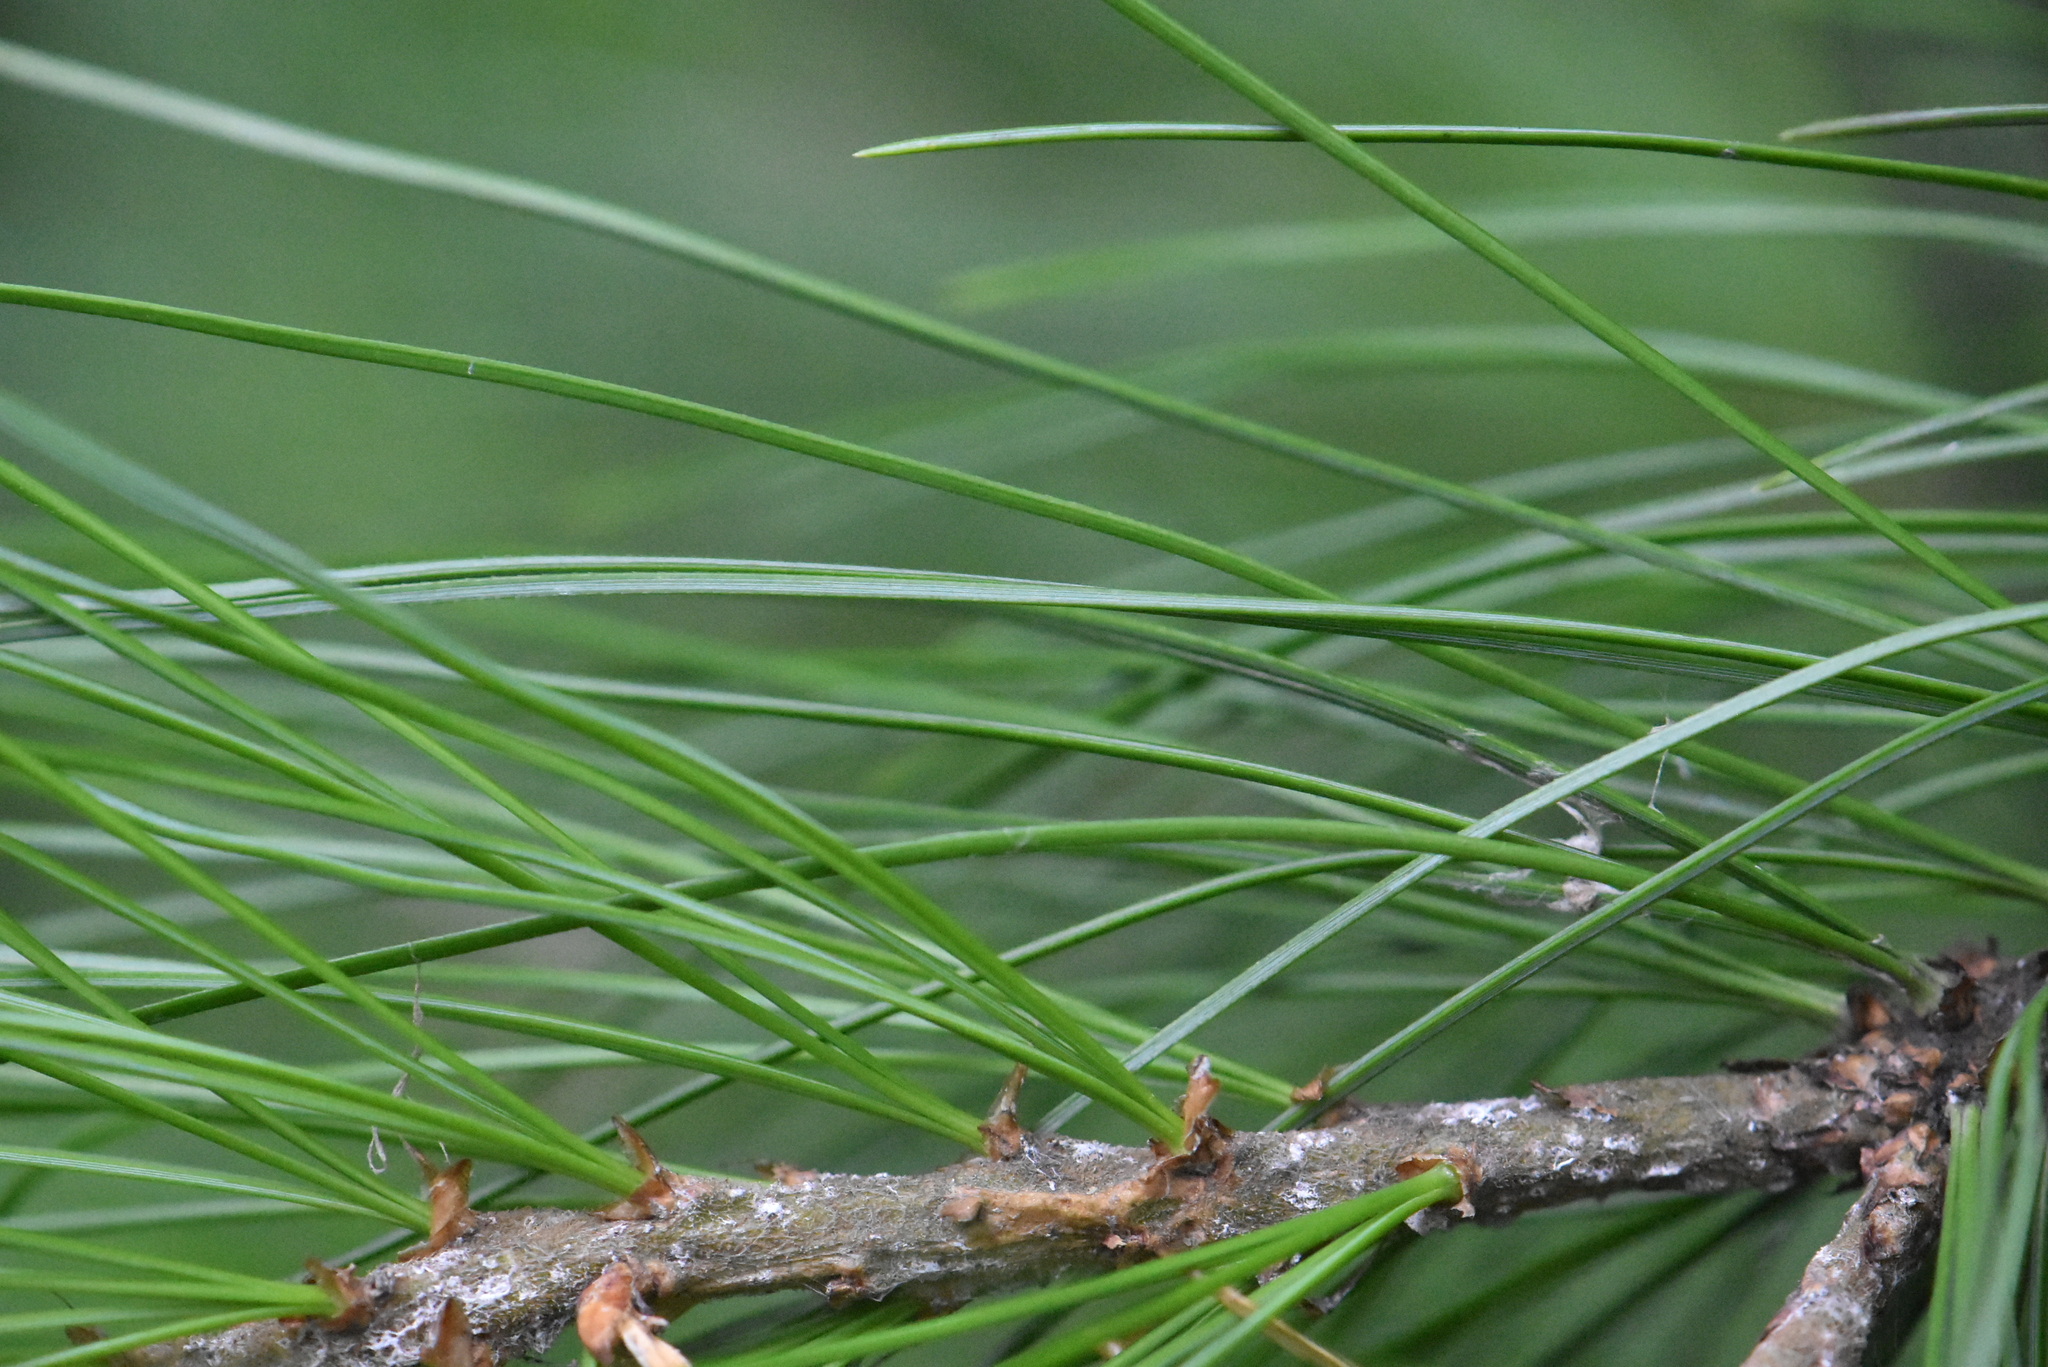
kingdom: Plantae
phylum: Tracheophyta
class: Pinopsida
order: Pinales
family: Pinaceae
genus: Pinus
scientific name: Pinus sibirica
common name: Siberian pine
